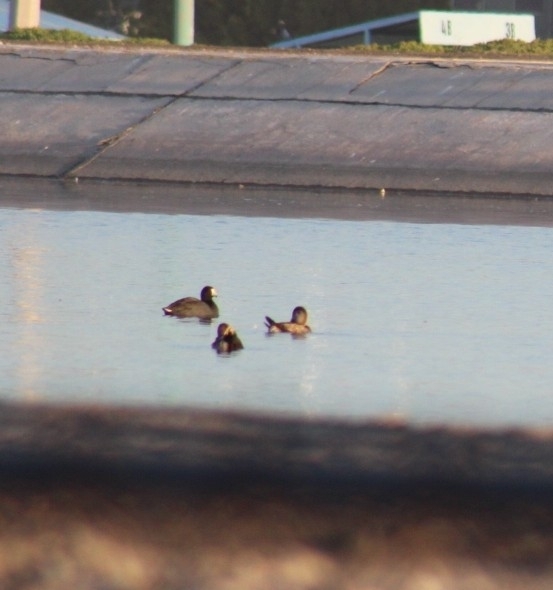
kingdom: Animalia
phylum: Chordata
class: Aves
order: Gruiformes
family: Rallidae
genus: Fulica
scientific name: Fulica americana
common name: American coot
